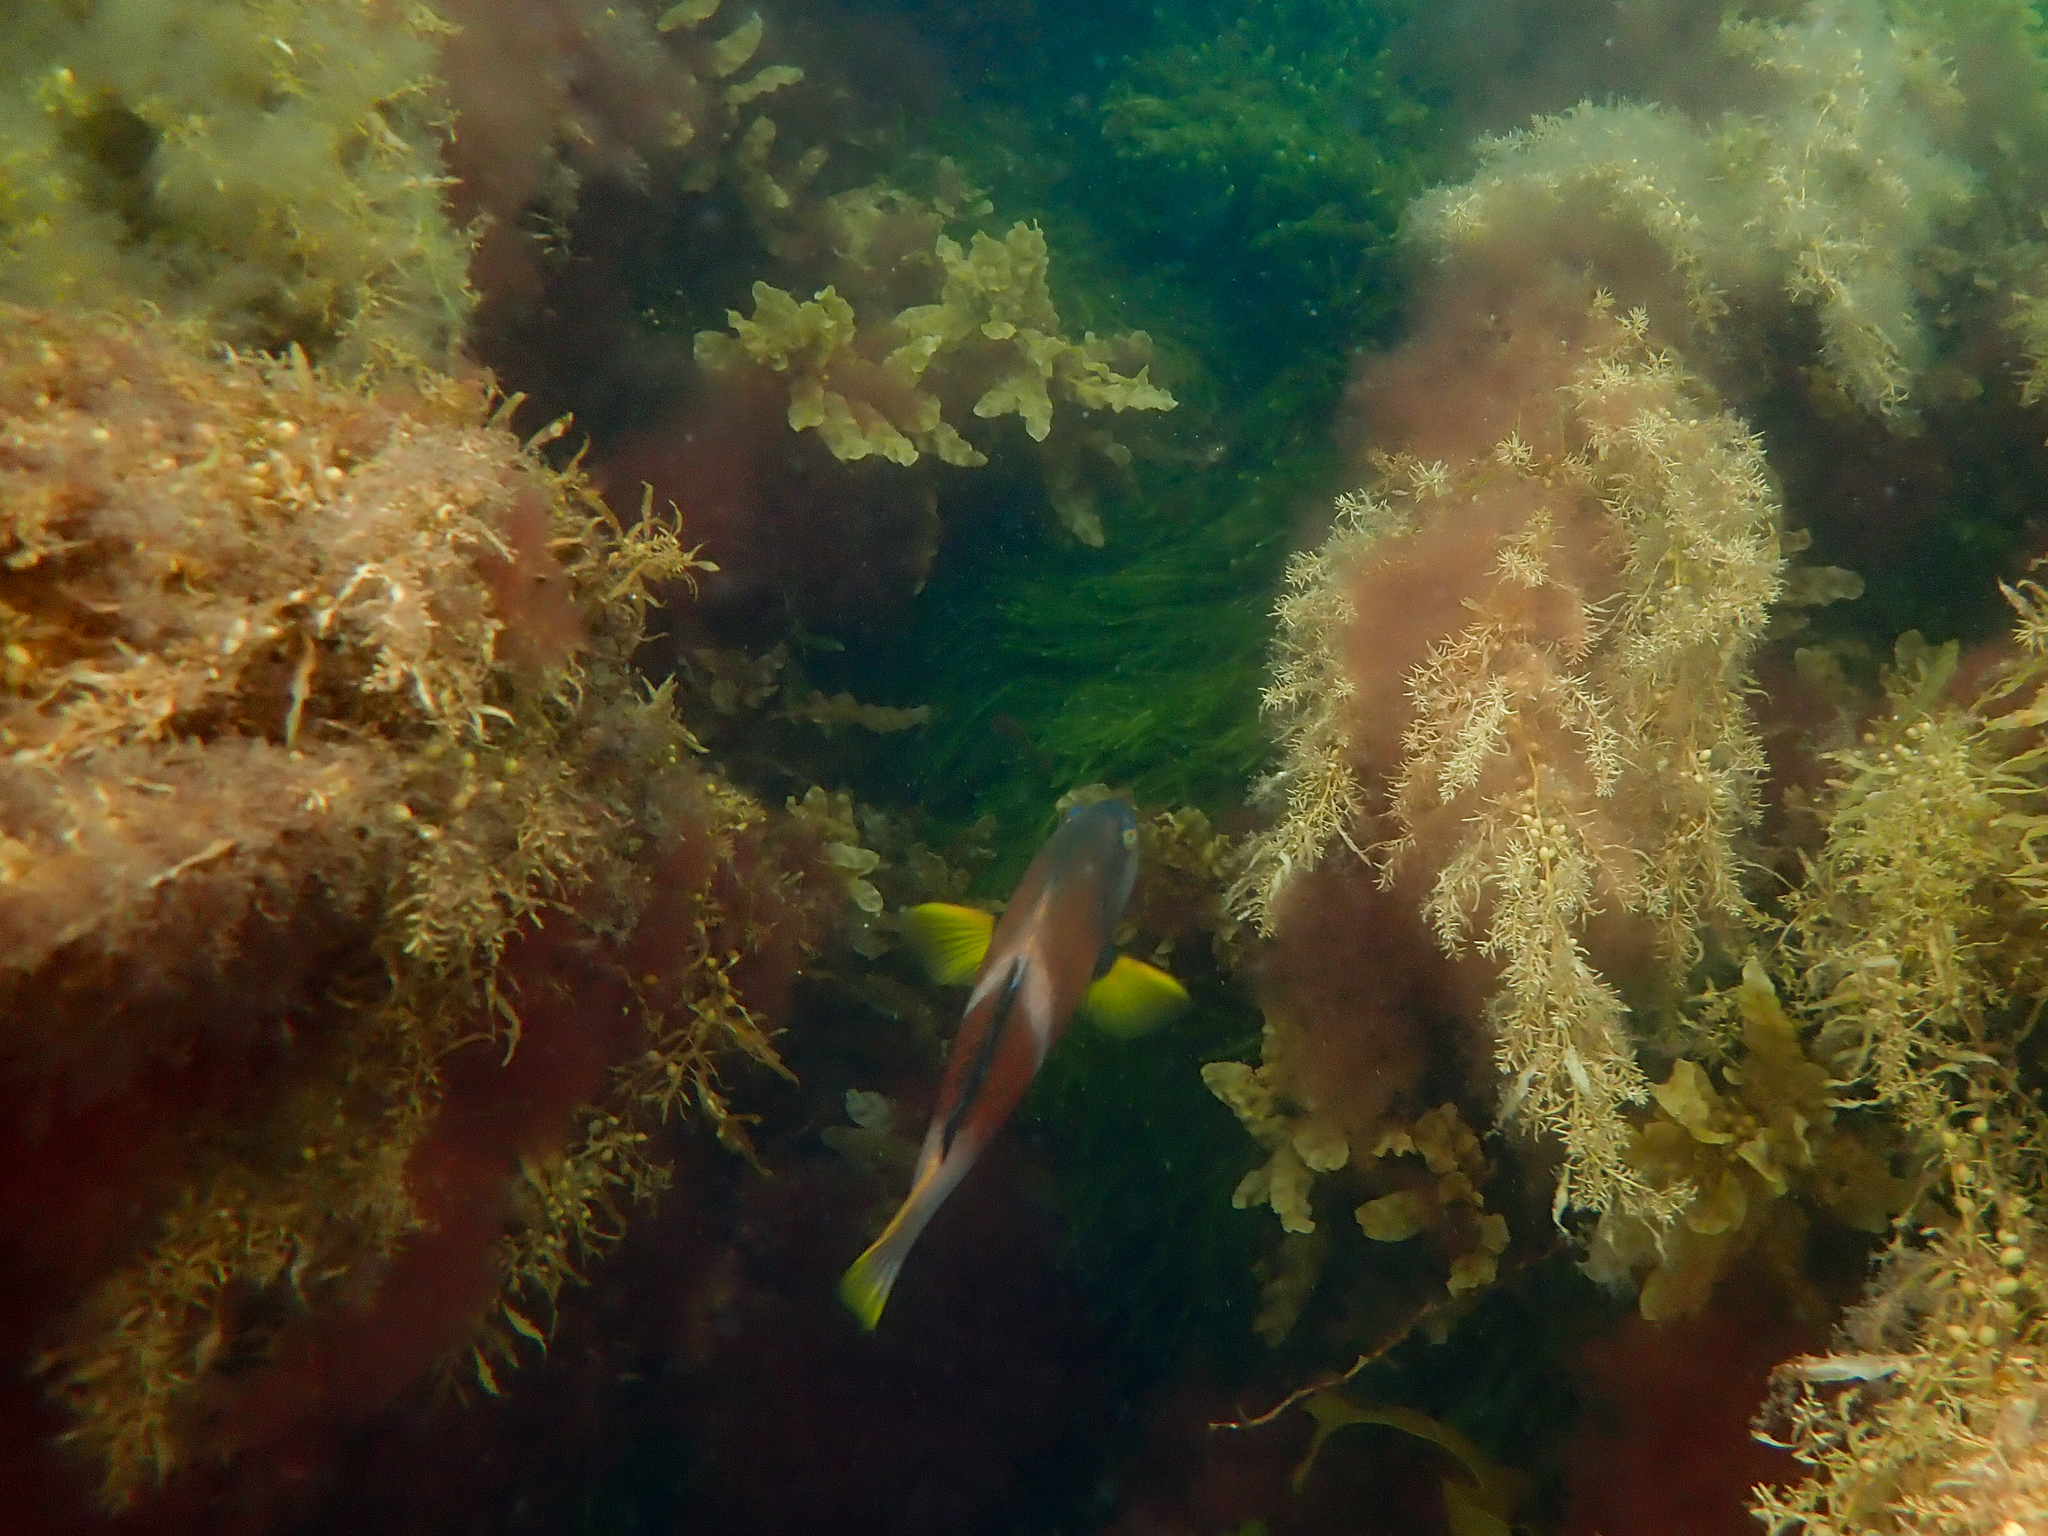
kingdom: Animalia
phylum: Chordata
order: Perciformes
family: Labridae
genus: Notolabrus
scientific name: Notolabrus tetricus
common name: Blue-throated parrotfish
